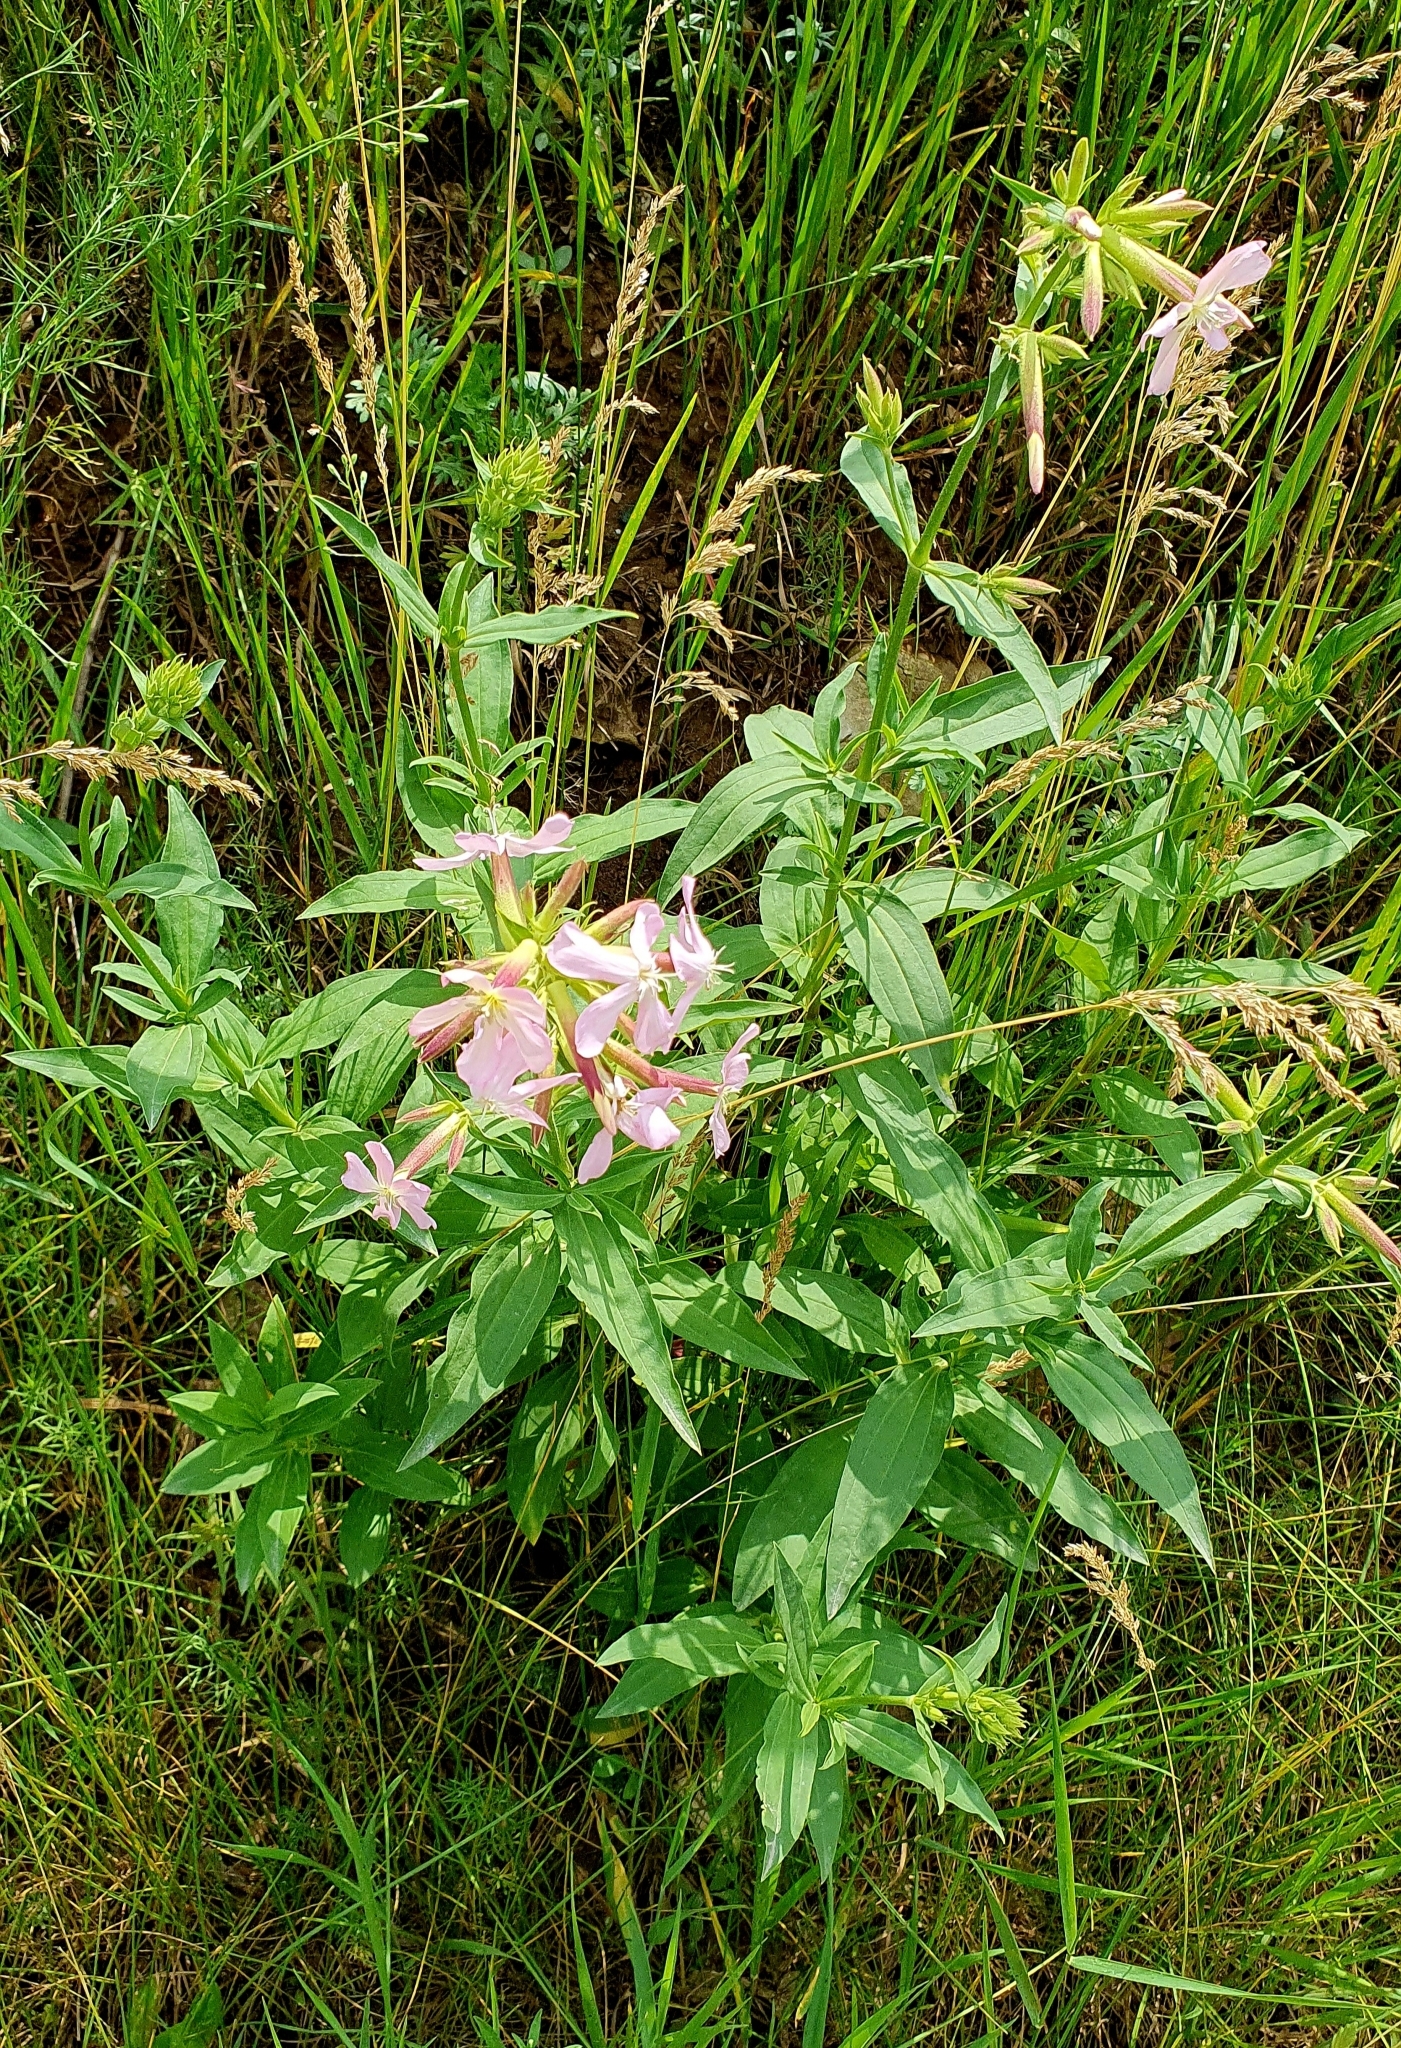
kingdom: Plantae
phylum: Tracheophyta
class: Magnoliopsida
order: Caryophyllales
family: Caryophyllaceae
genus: Saponaria
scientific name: Saponaria officinalis
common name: Soapwort
